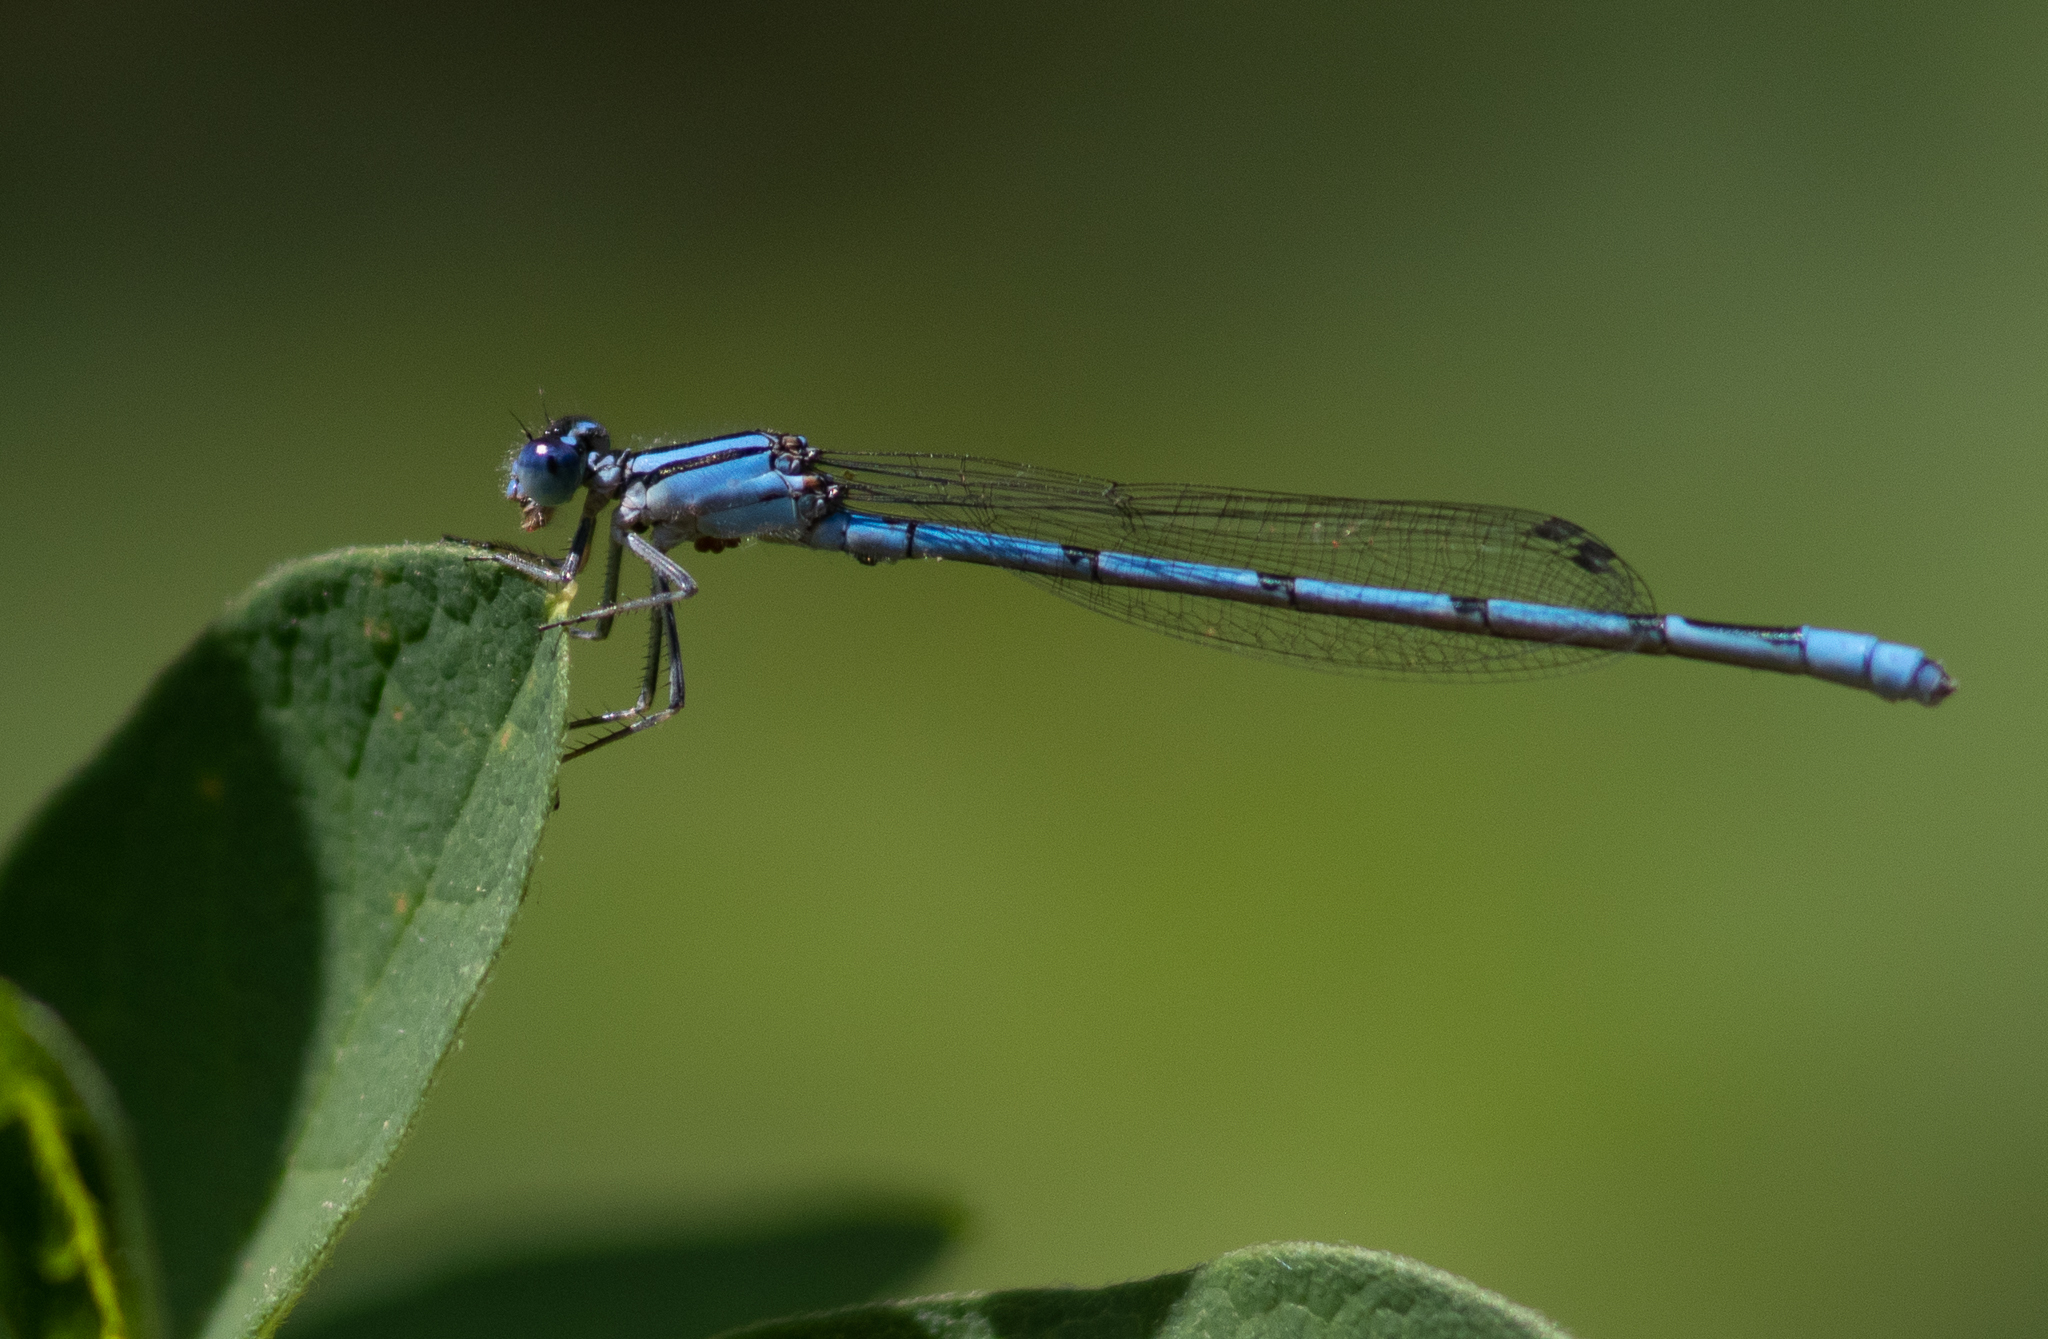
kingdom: Animalia
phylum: Arthropoda
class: Insecta
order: Odonata
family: Coenagrionidae
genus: Enallagma
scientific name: Enallagma
